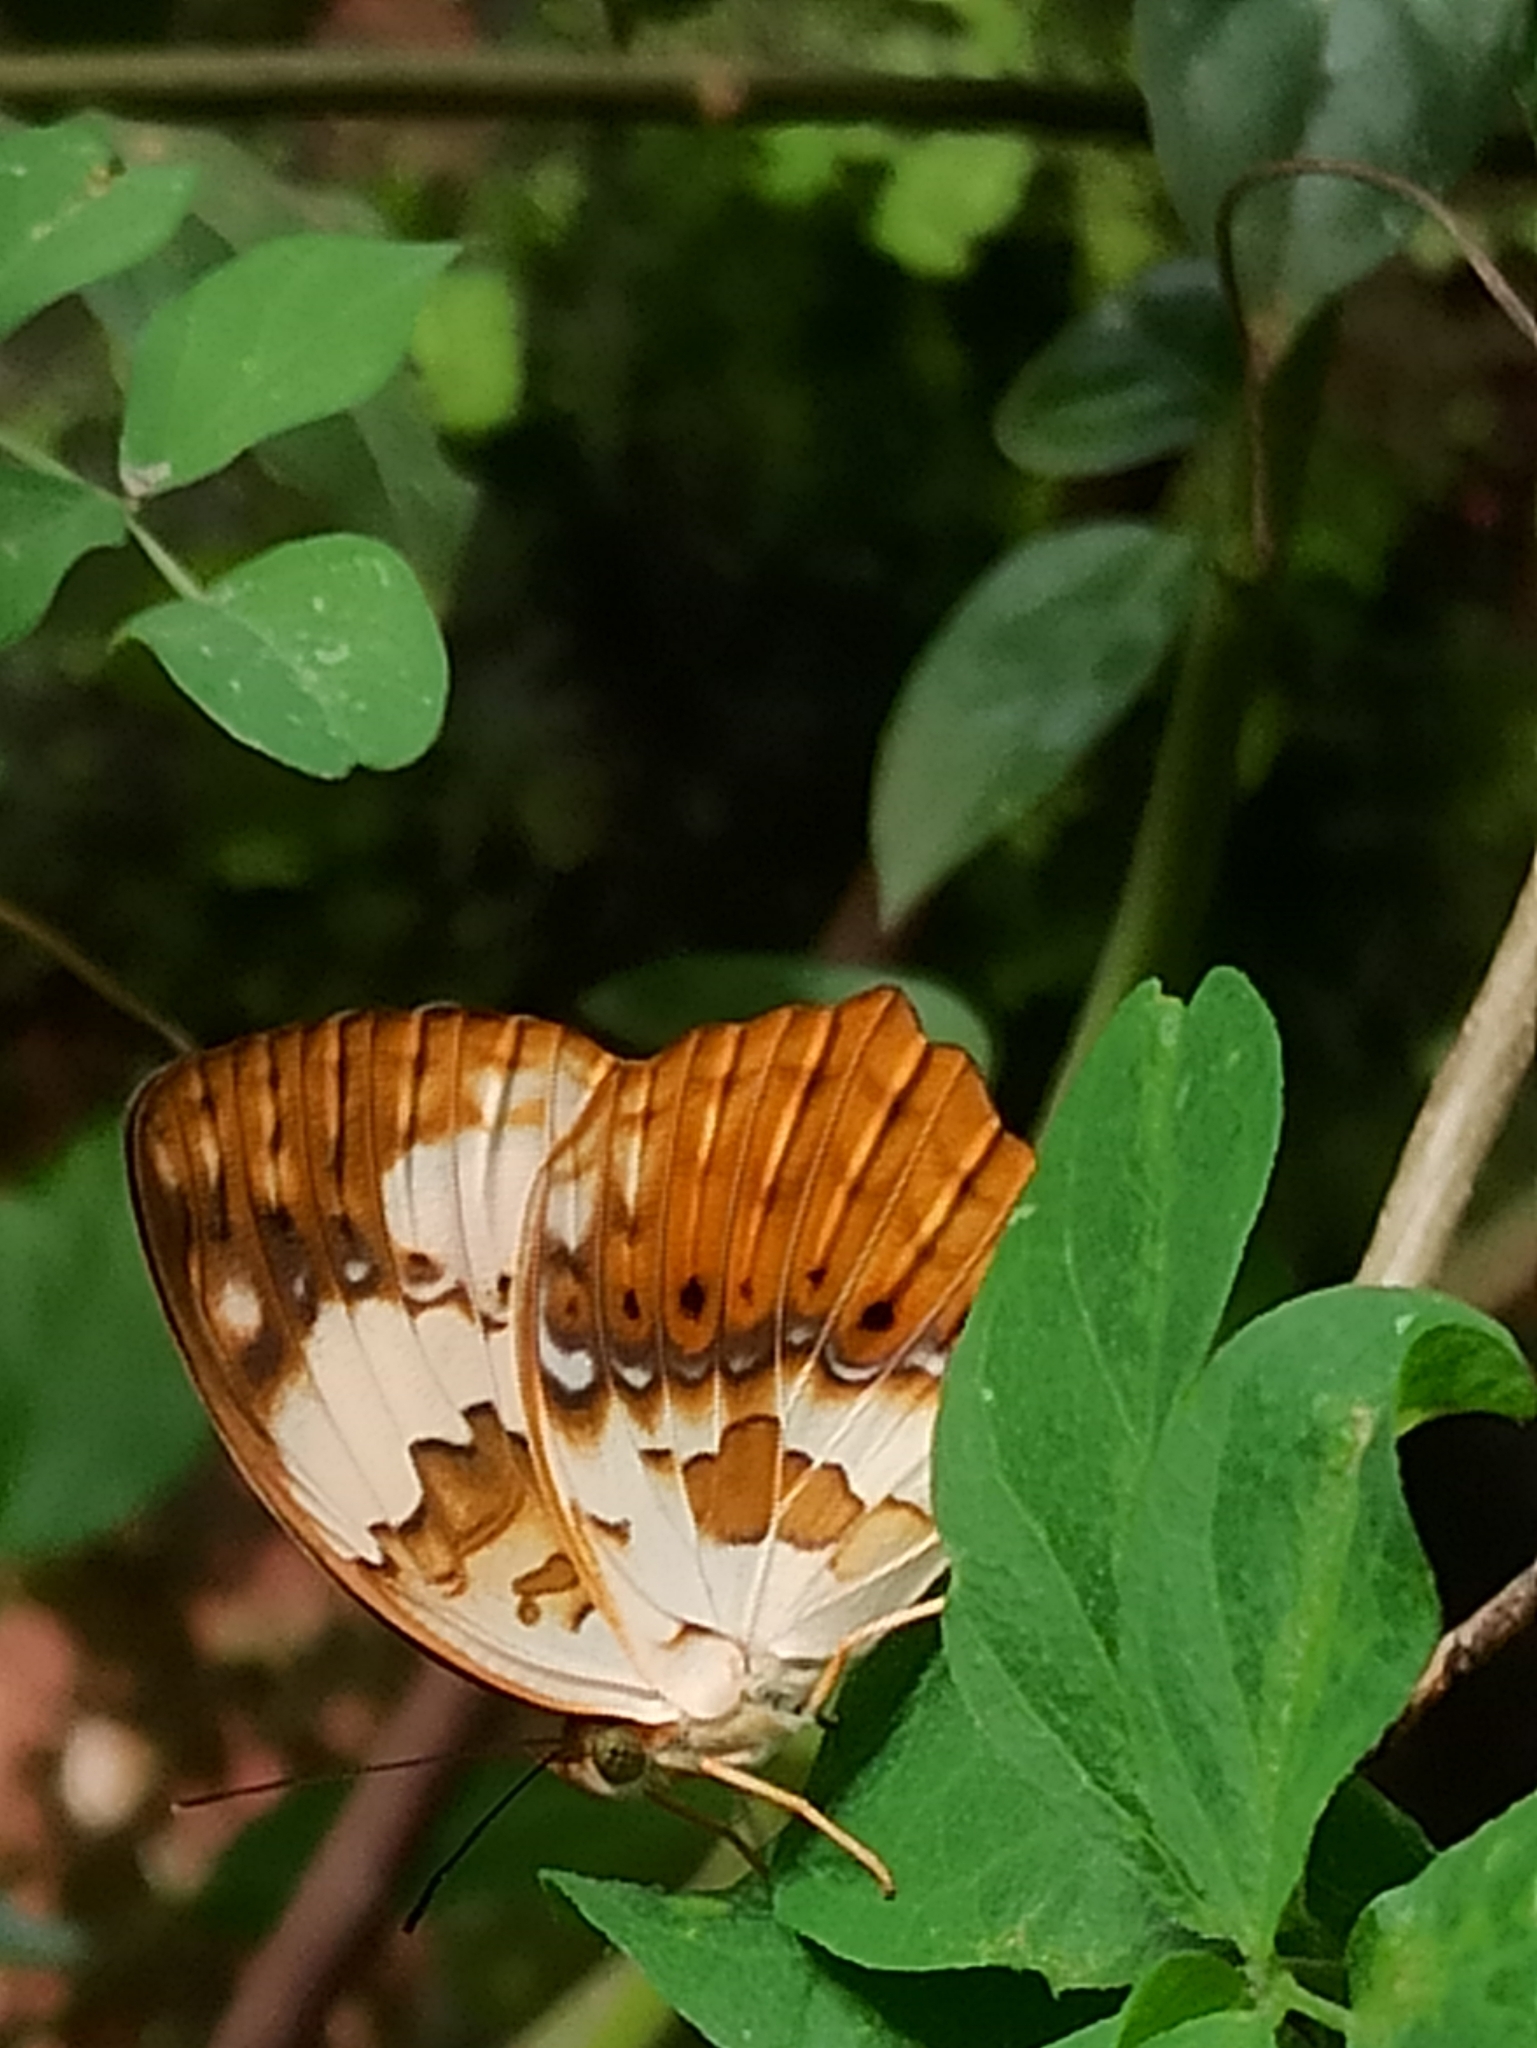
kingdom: Animalia
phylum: Arthropoda
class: Insecta
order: Lepidoptera
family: Nymphalidae
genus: Cupha
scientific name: Cupha erymanthis
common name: Rustic
